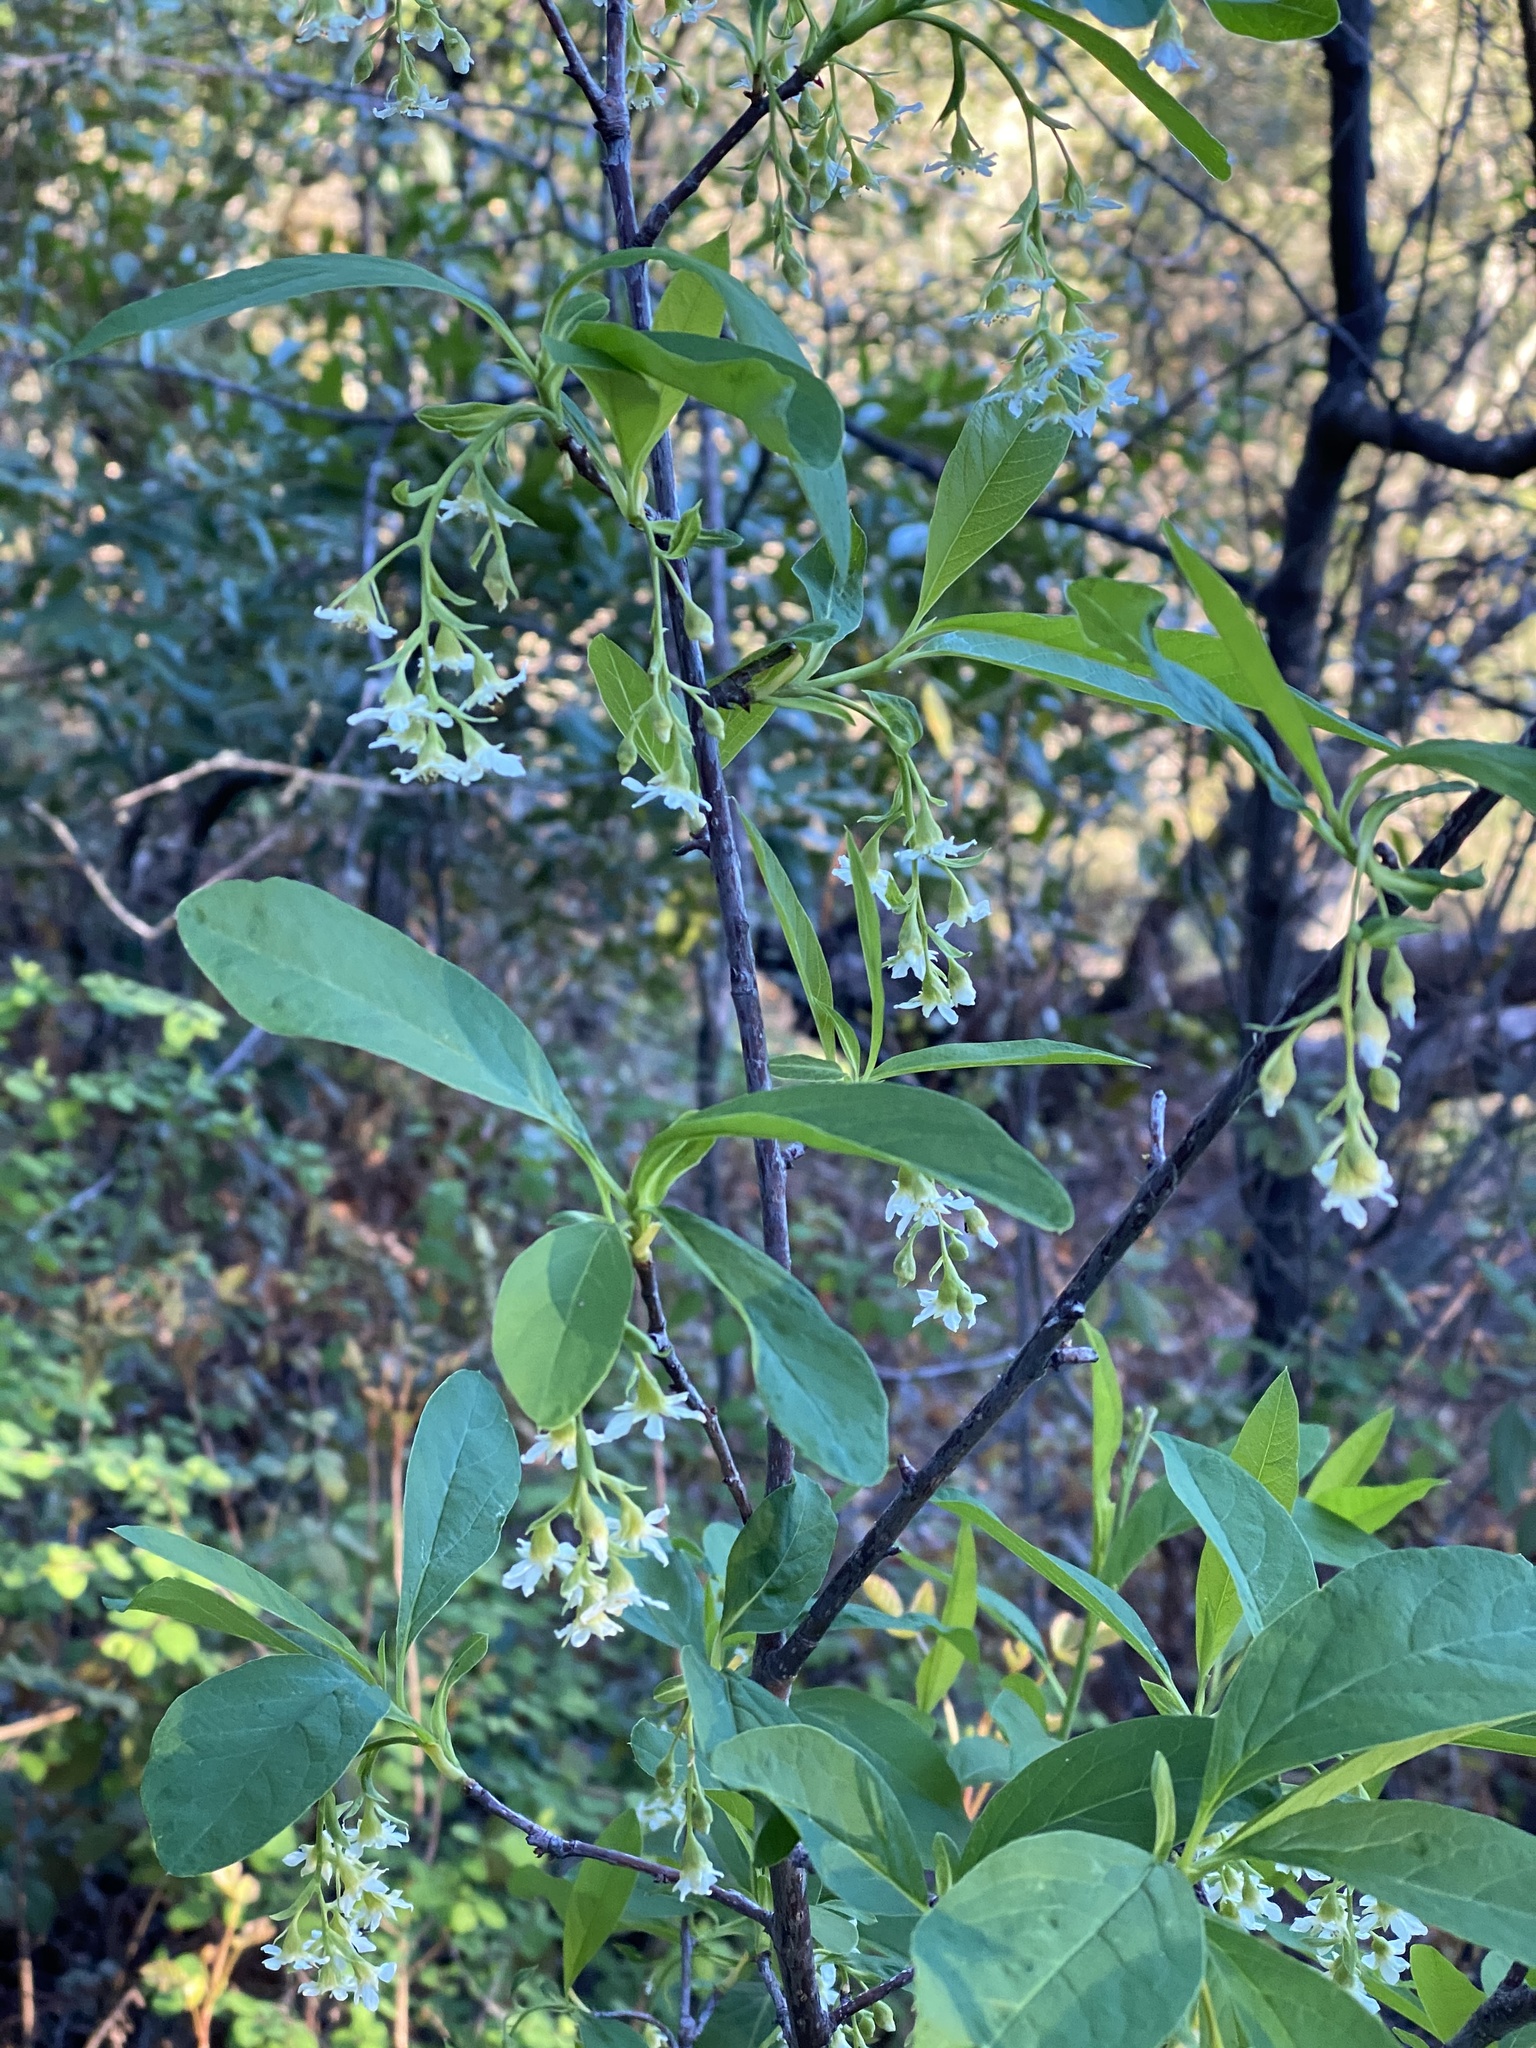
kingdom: Plantae
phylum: Tracheophyta
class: Magnoliopsida
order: Rosales
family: Rosaceae
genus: Oemleria
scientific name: Oemleria cerasiformis
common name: Osoberry
